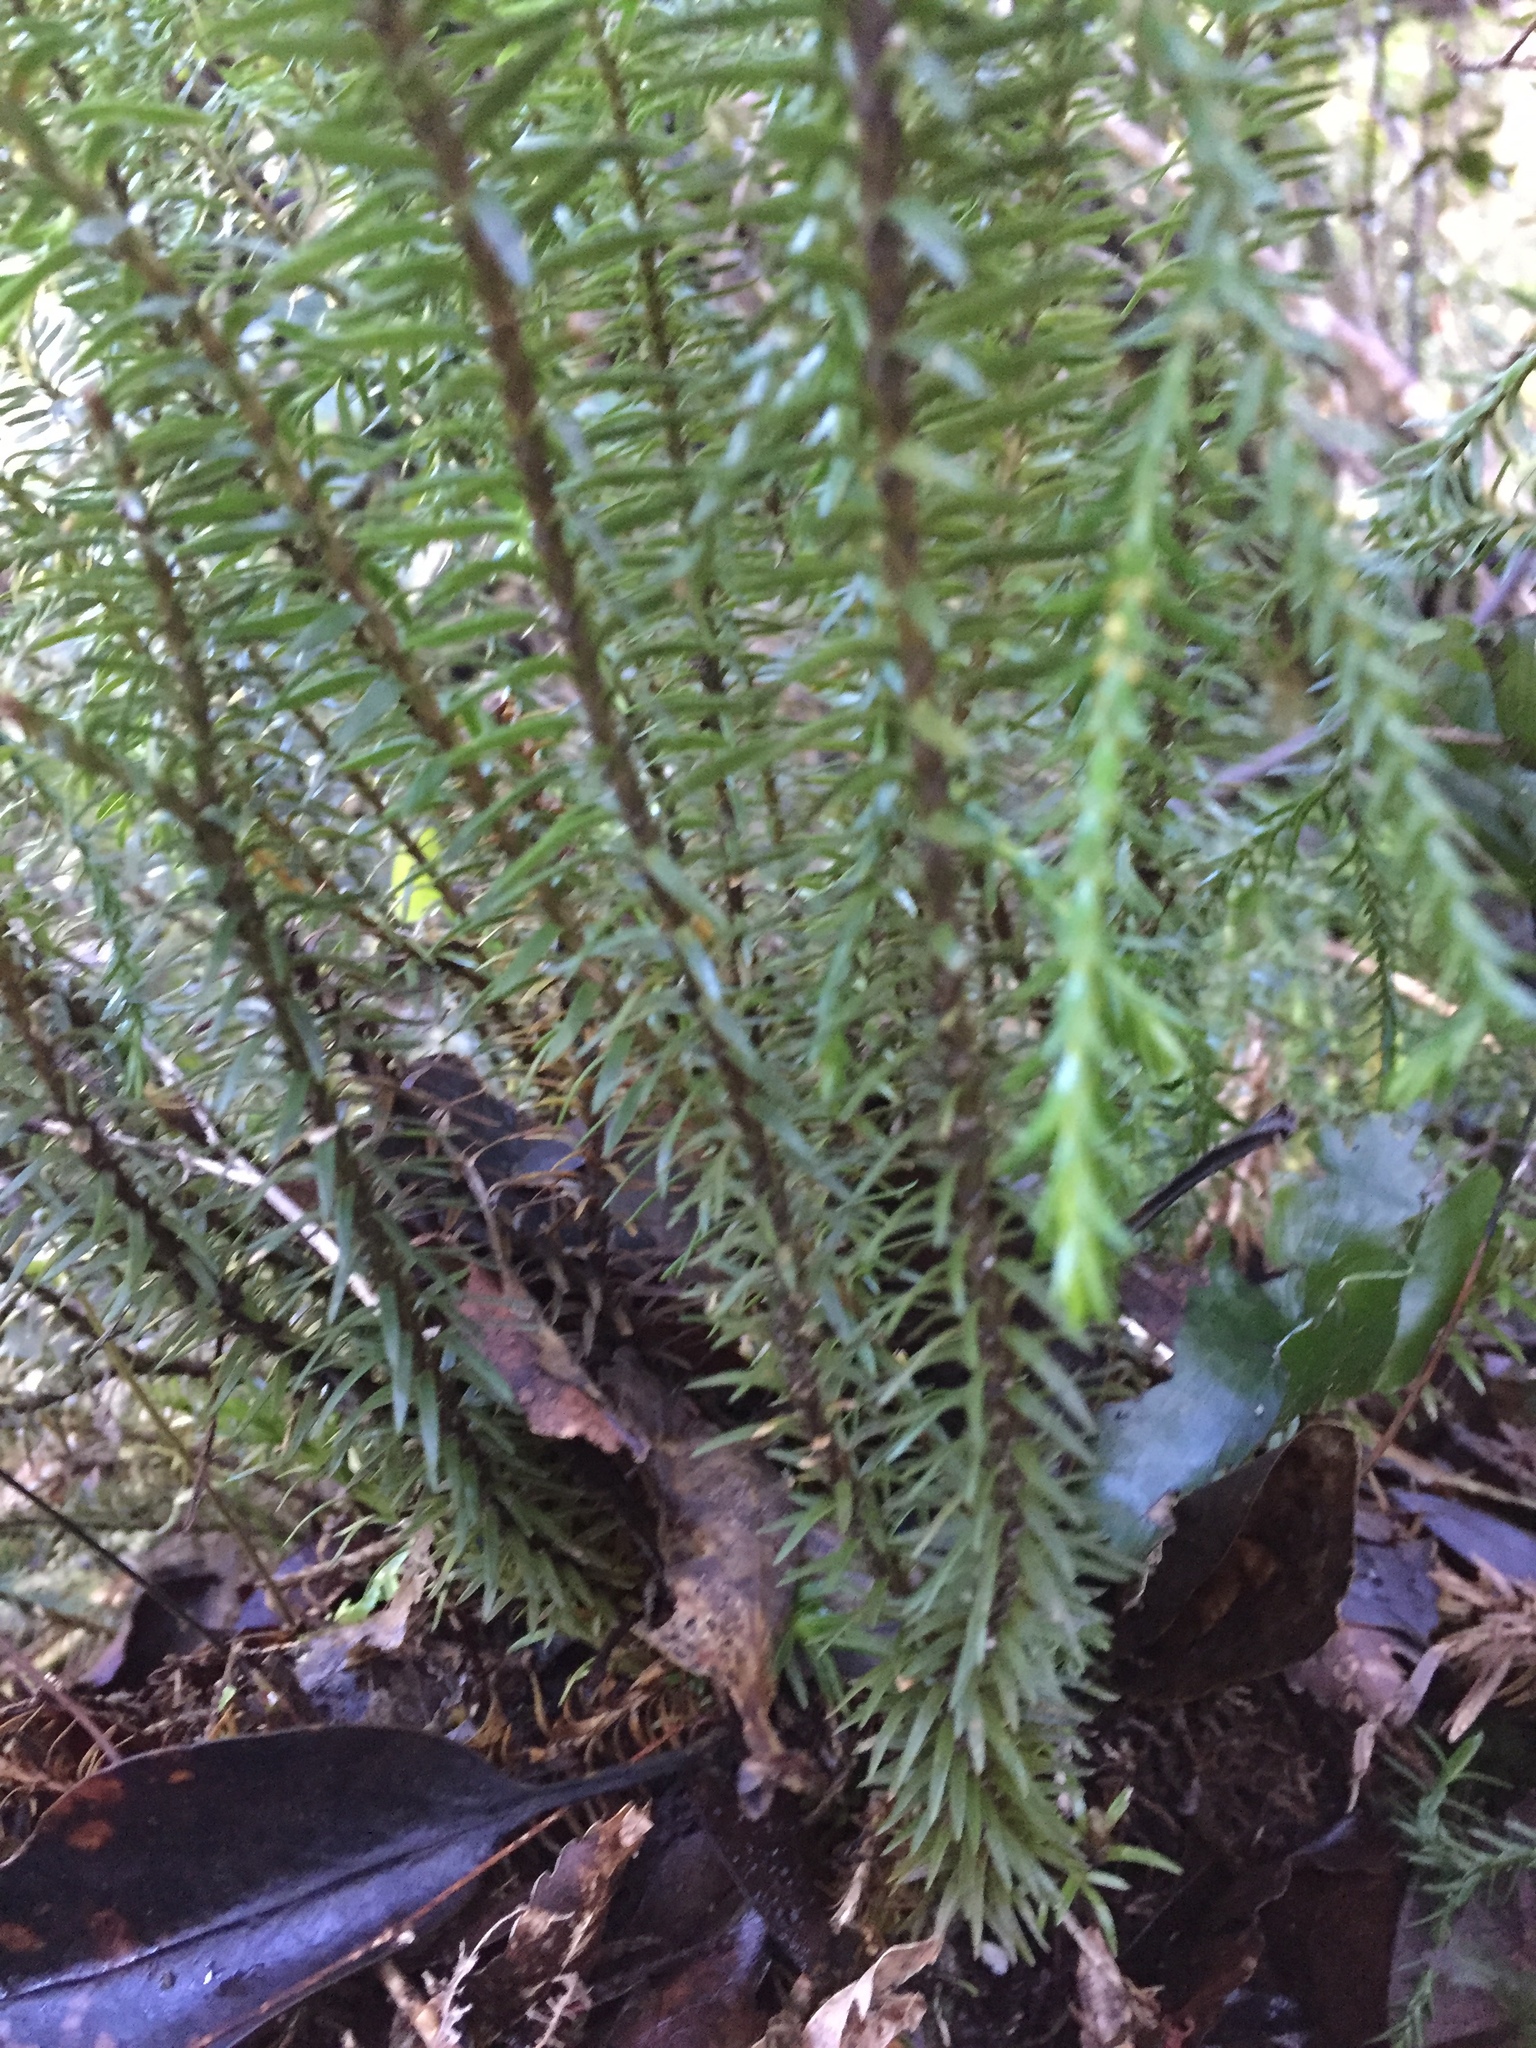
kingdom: Plantae
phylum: Tracheophyta
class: Lycopodiopsida
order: Lycopodiales
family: Lycopodiaceae
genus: Phlegmariurus
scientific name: Phlegmariurus varius
